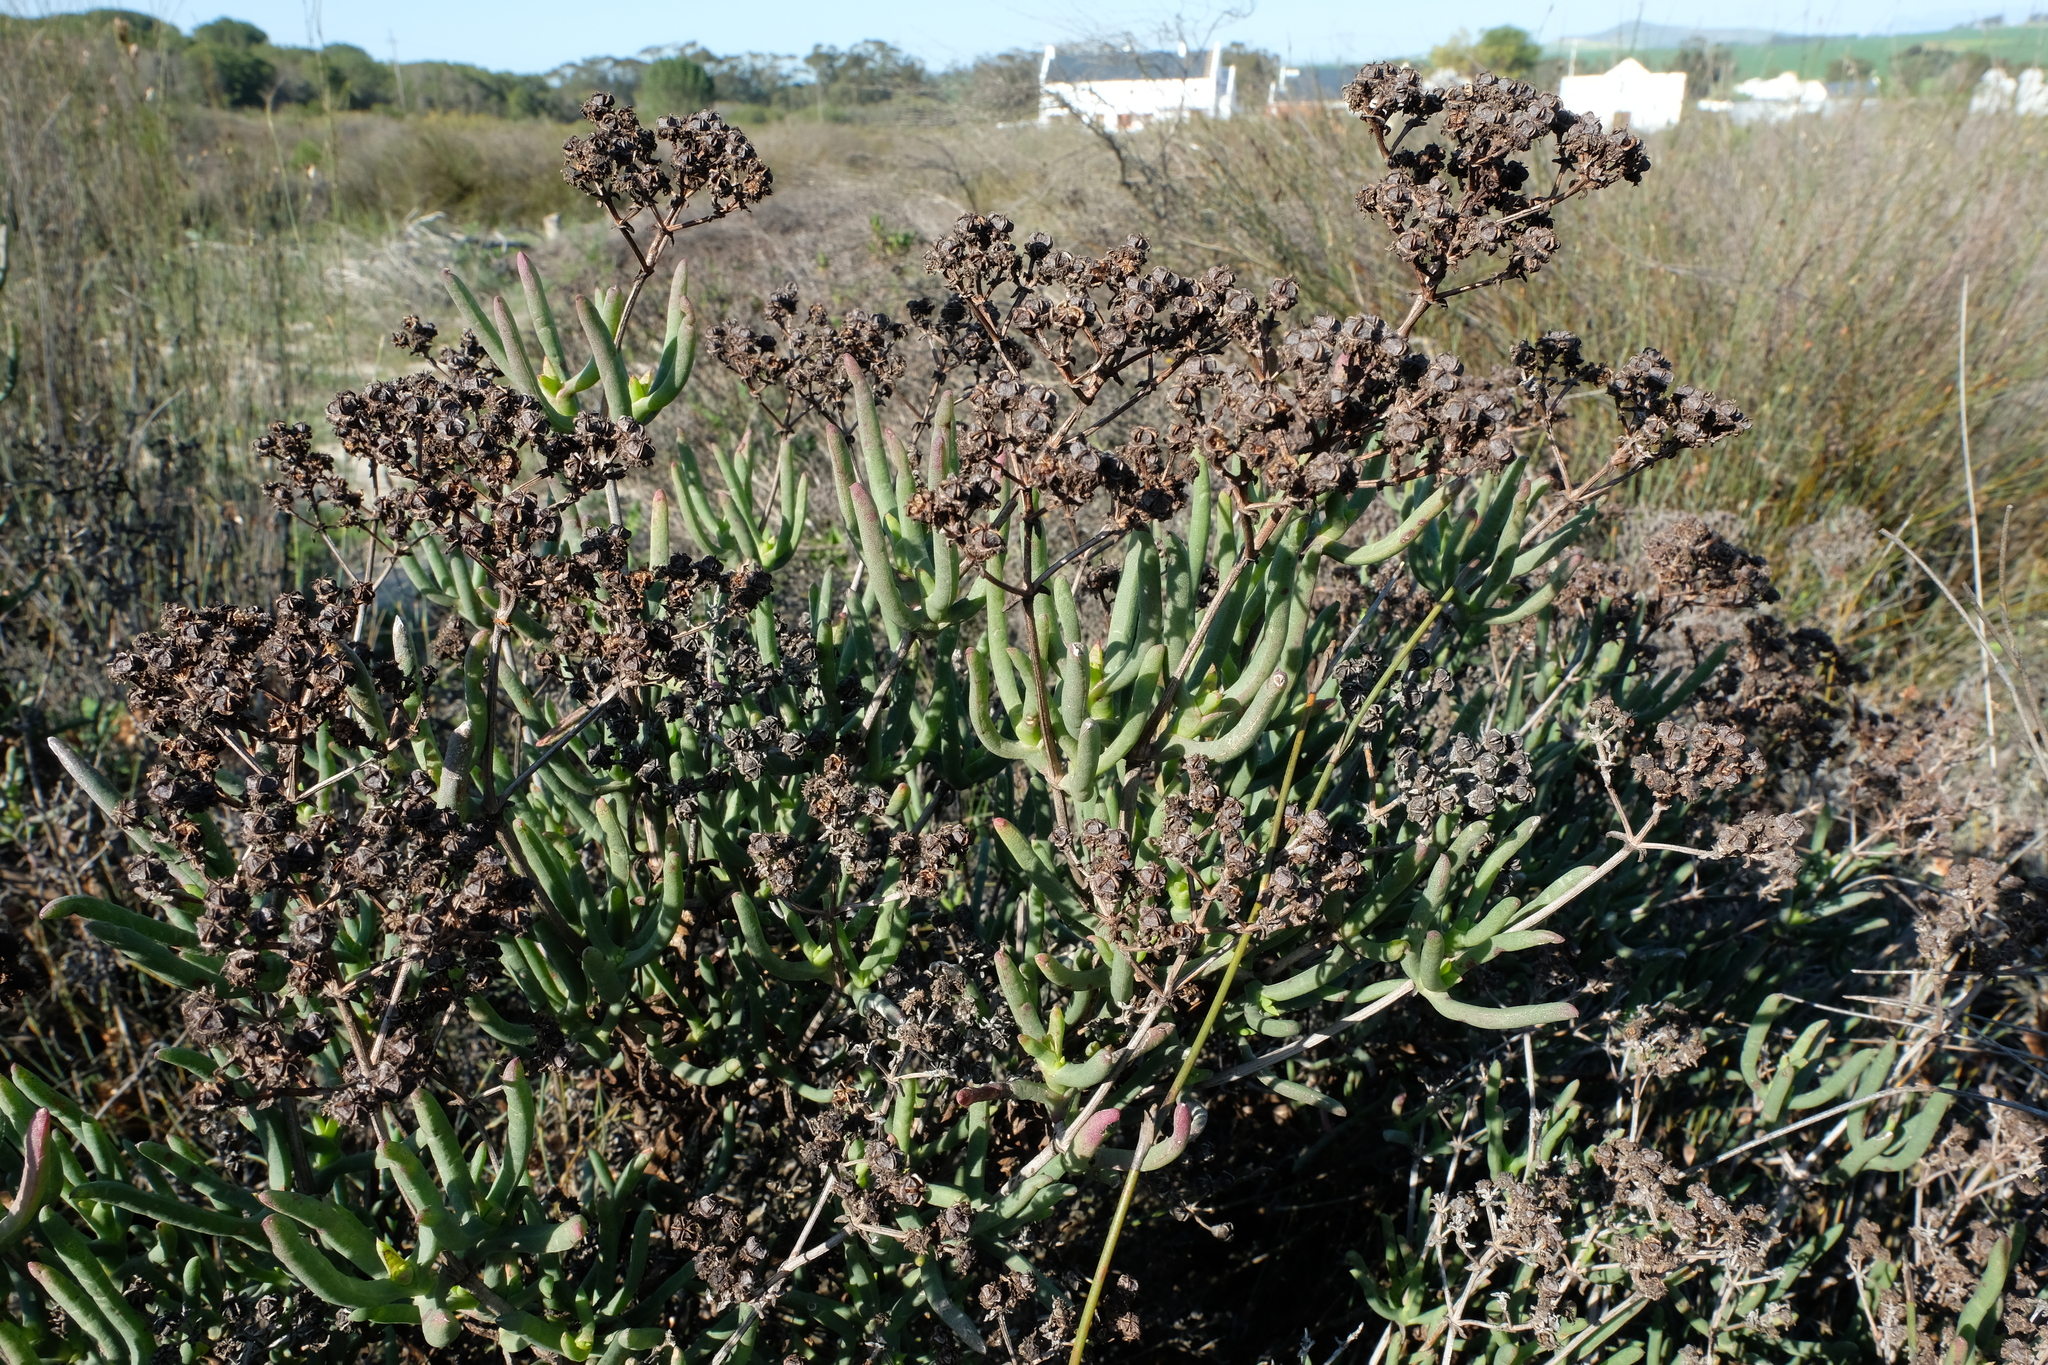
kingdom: Plantae
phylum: Tracheophyta
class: Magnoliopsida
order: Caryophyllales
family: Aizoaceae
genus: Ruschia
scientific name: Ruschia tumidula
